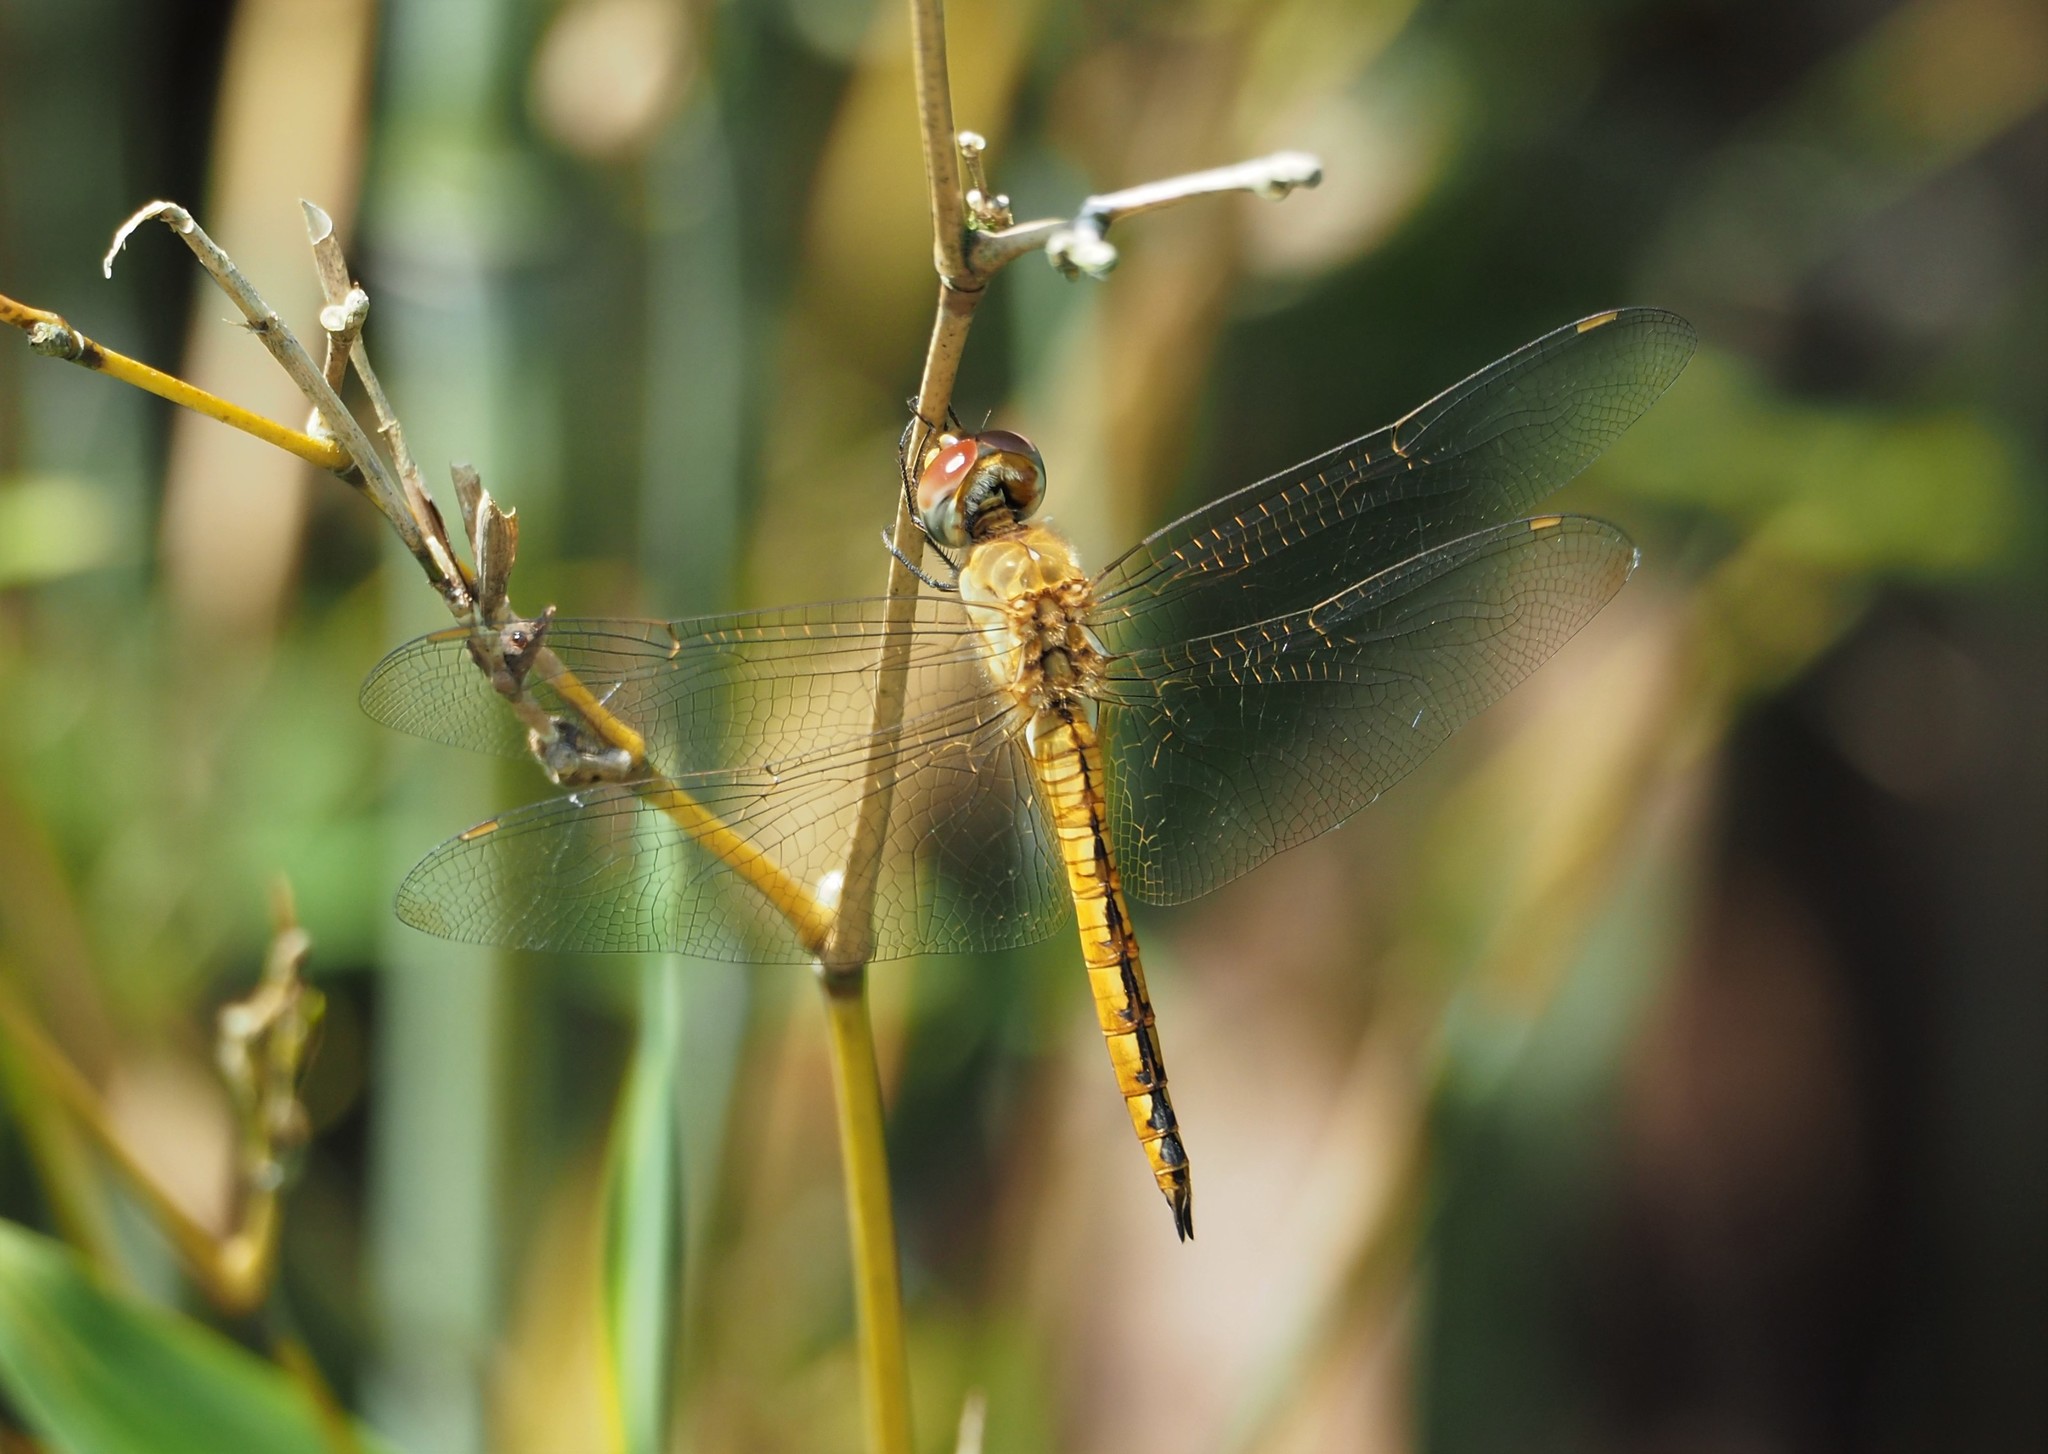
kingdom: Animalia
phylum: Arthropoda
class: Insecta
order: Odonata
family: Libellulidae
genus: Pantala
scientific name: Pantala flavescens
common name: Wandering glider
